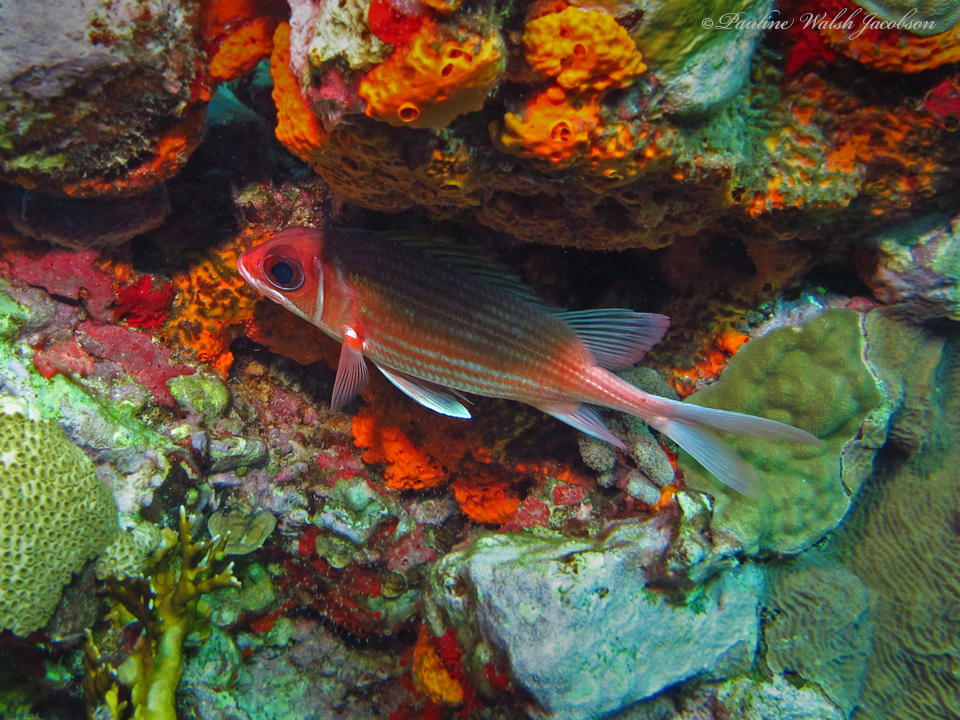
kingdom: Animalia
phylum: Chordata
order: Beryciformes
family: Holocentridae
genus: Holocentrus
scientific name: Holocentrus adscensionis
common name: Squirrelfish
